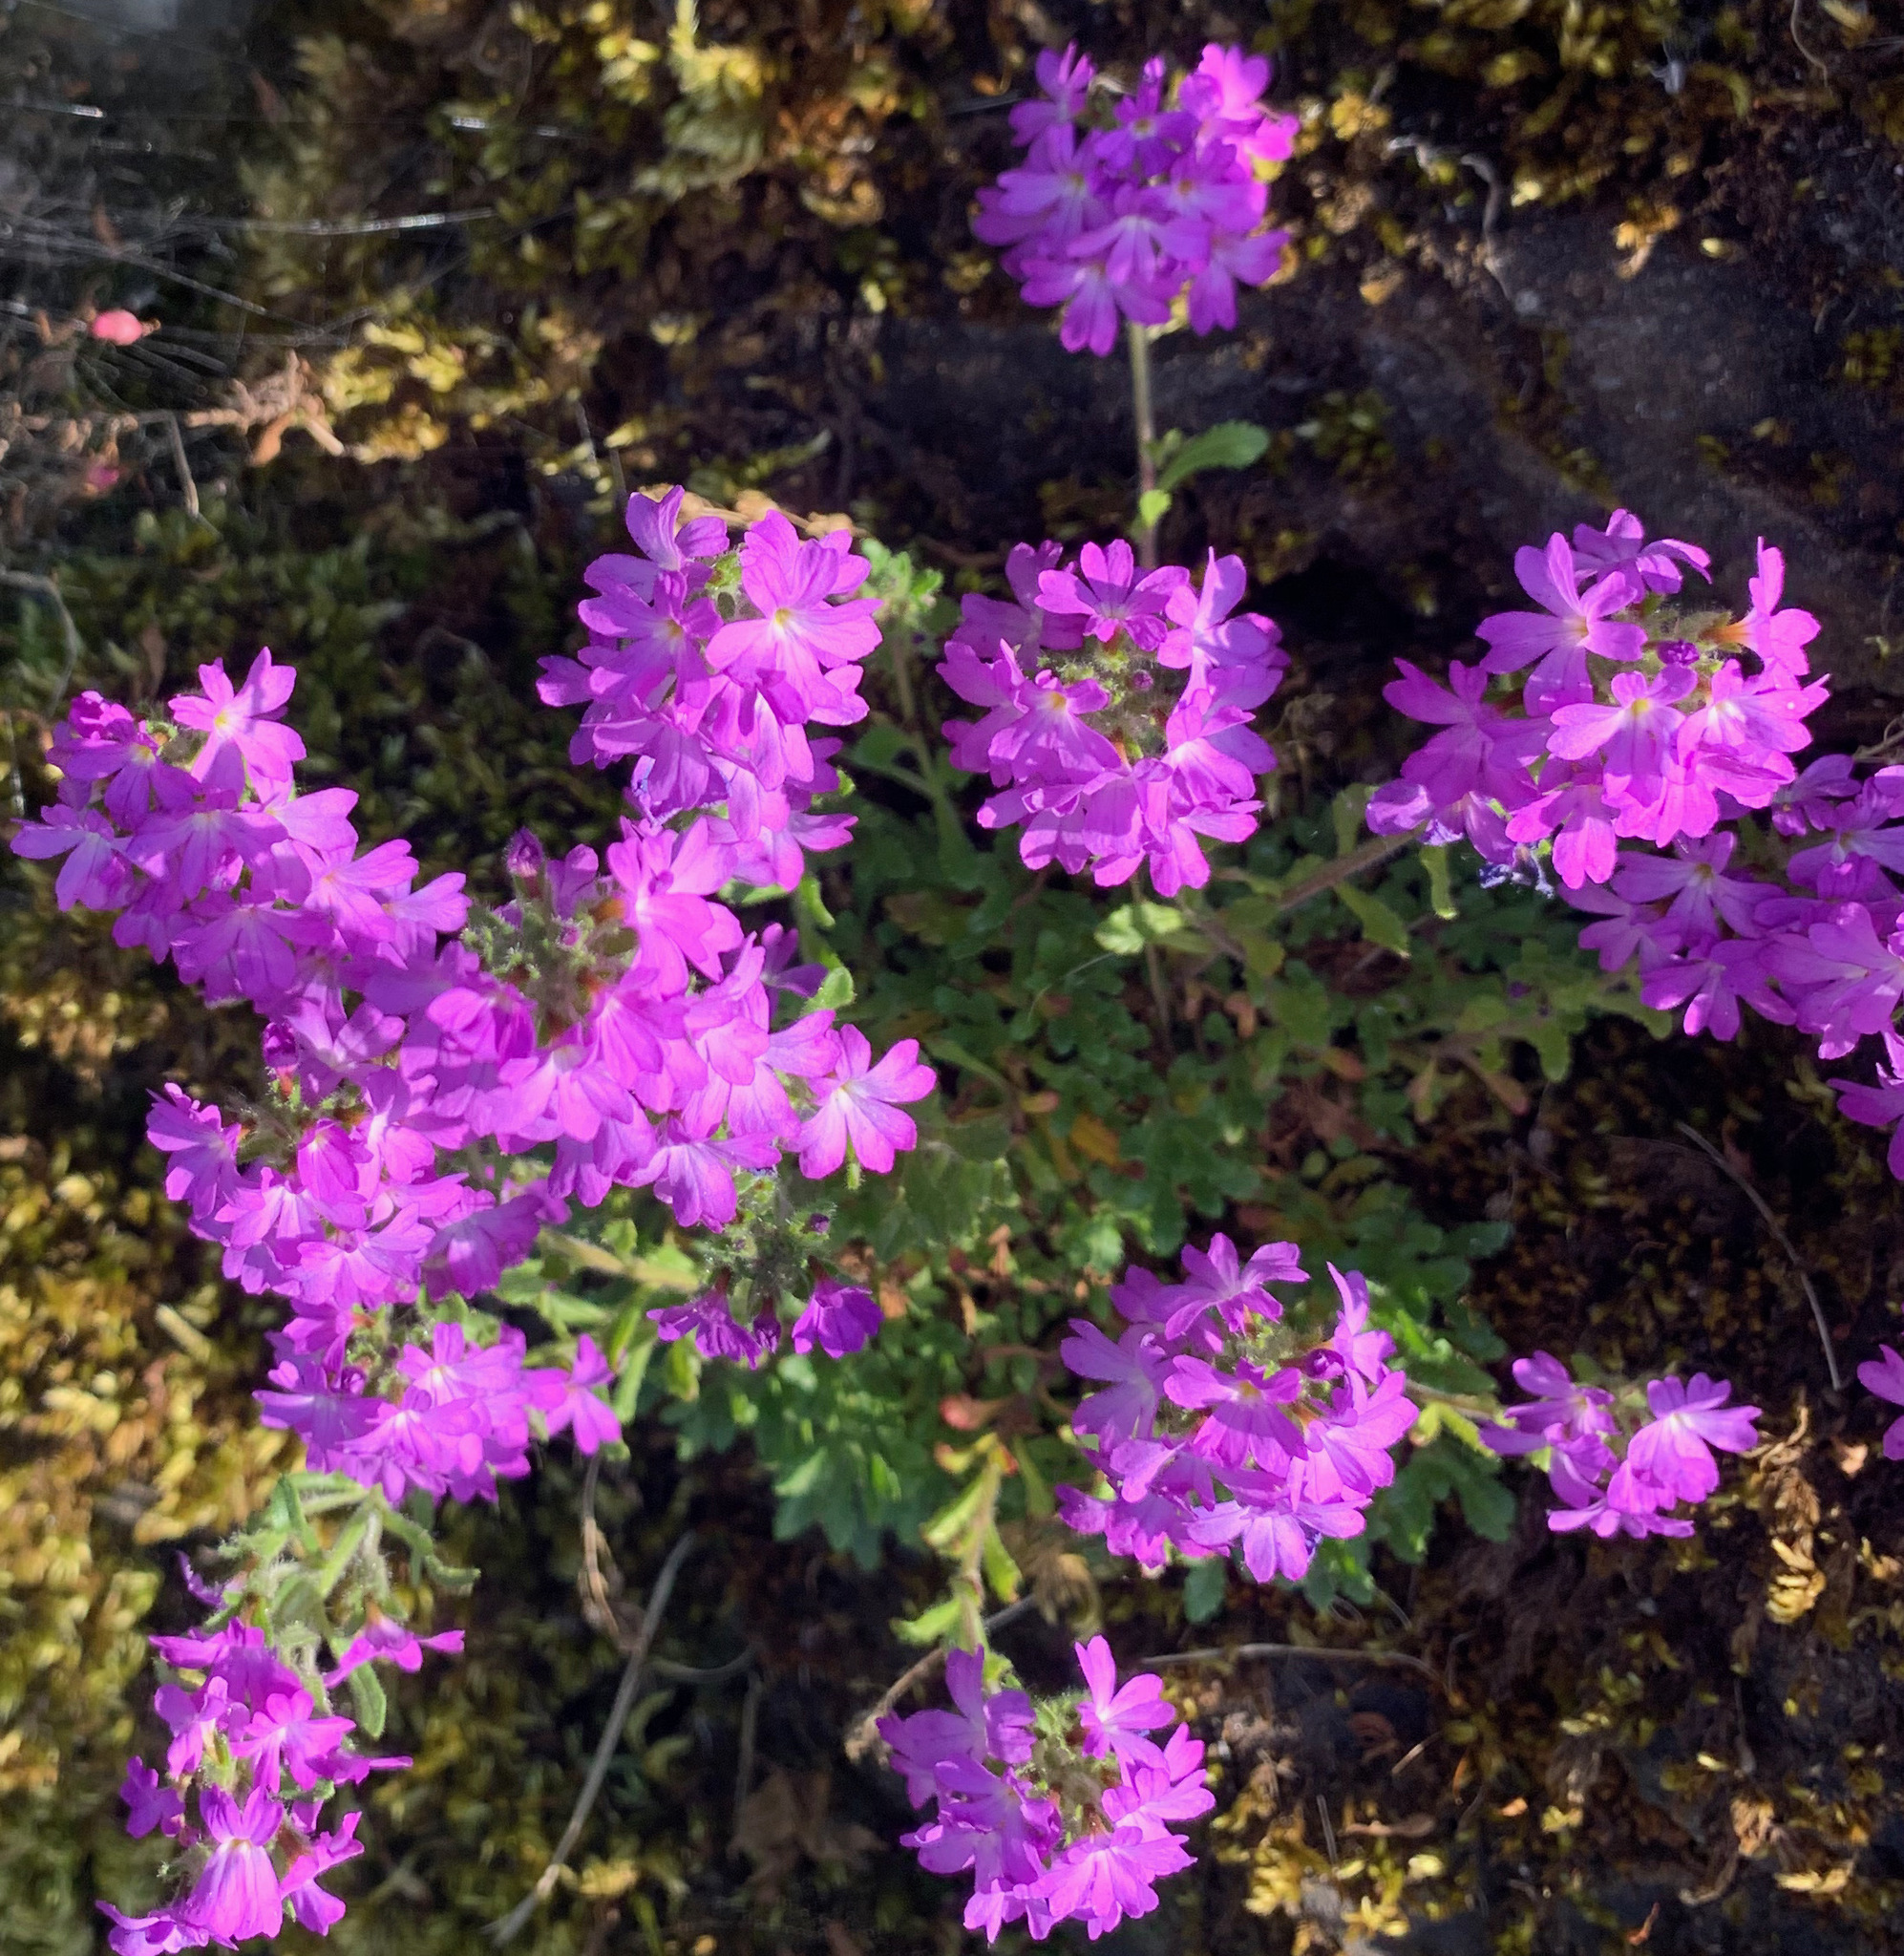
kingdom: Plantae
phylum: Tracheophyta
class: Magnoliopsida
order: Lamiales
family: Plantaginaceae
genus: Erinus
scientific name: Erinus alpinus
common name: Fairy foxglove
